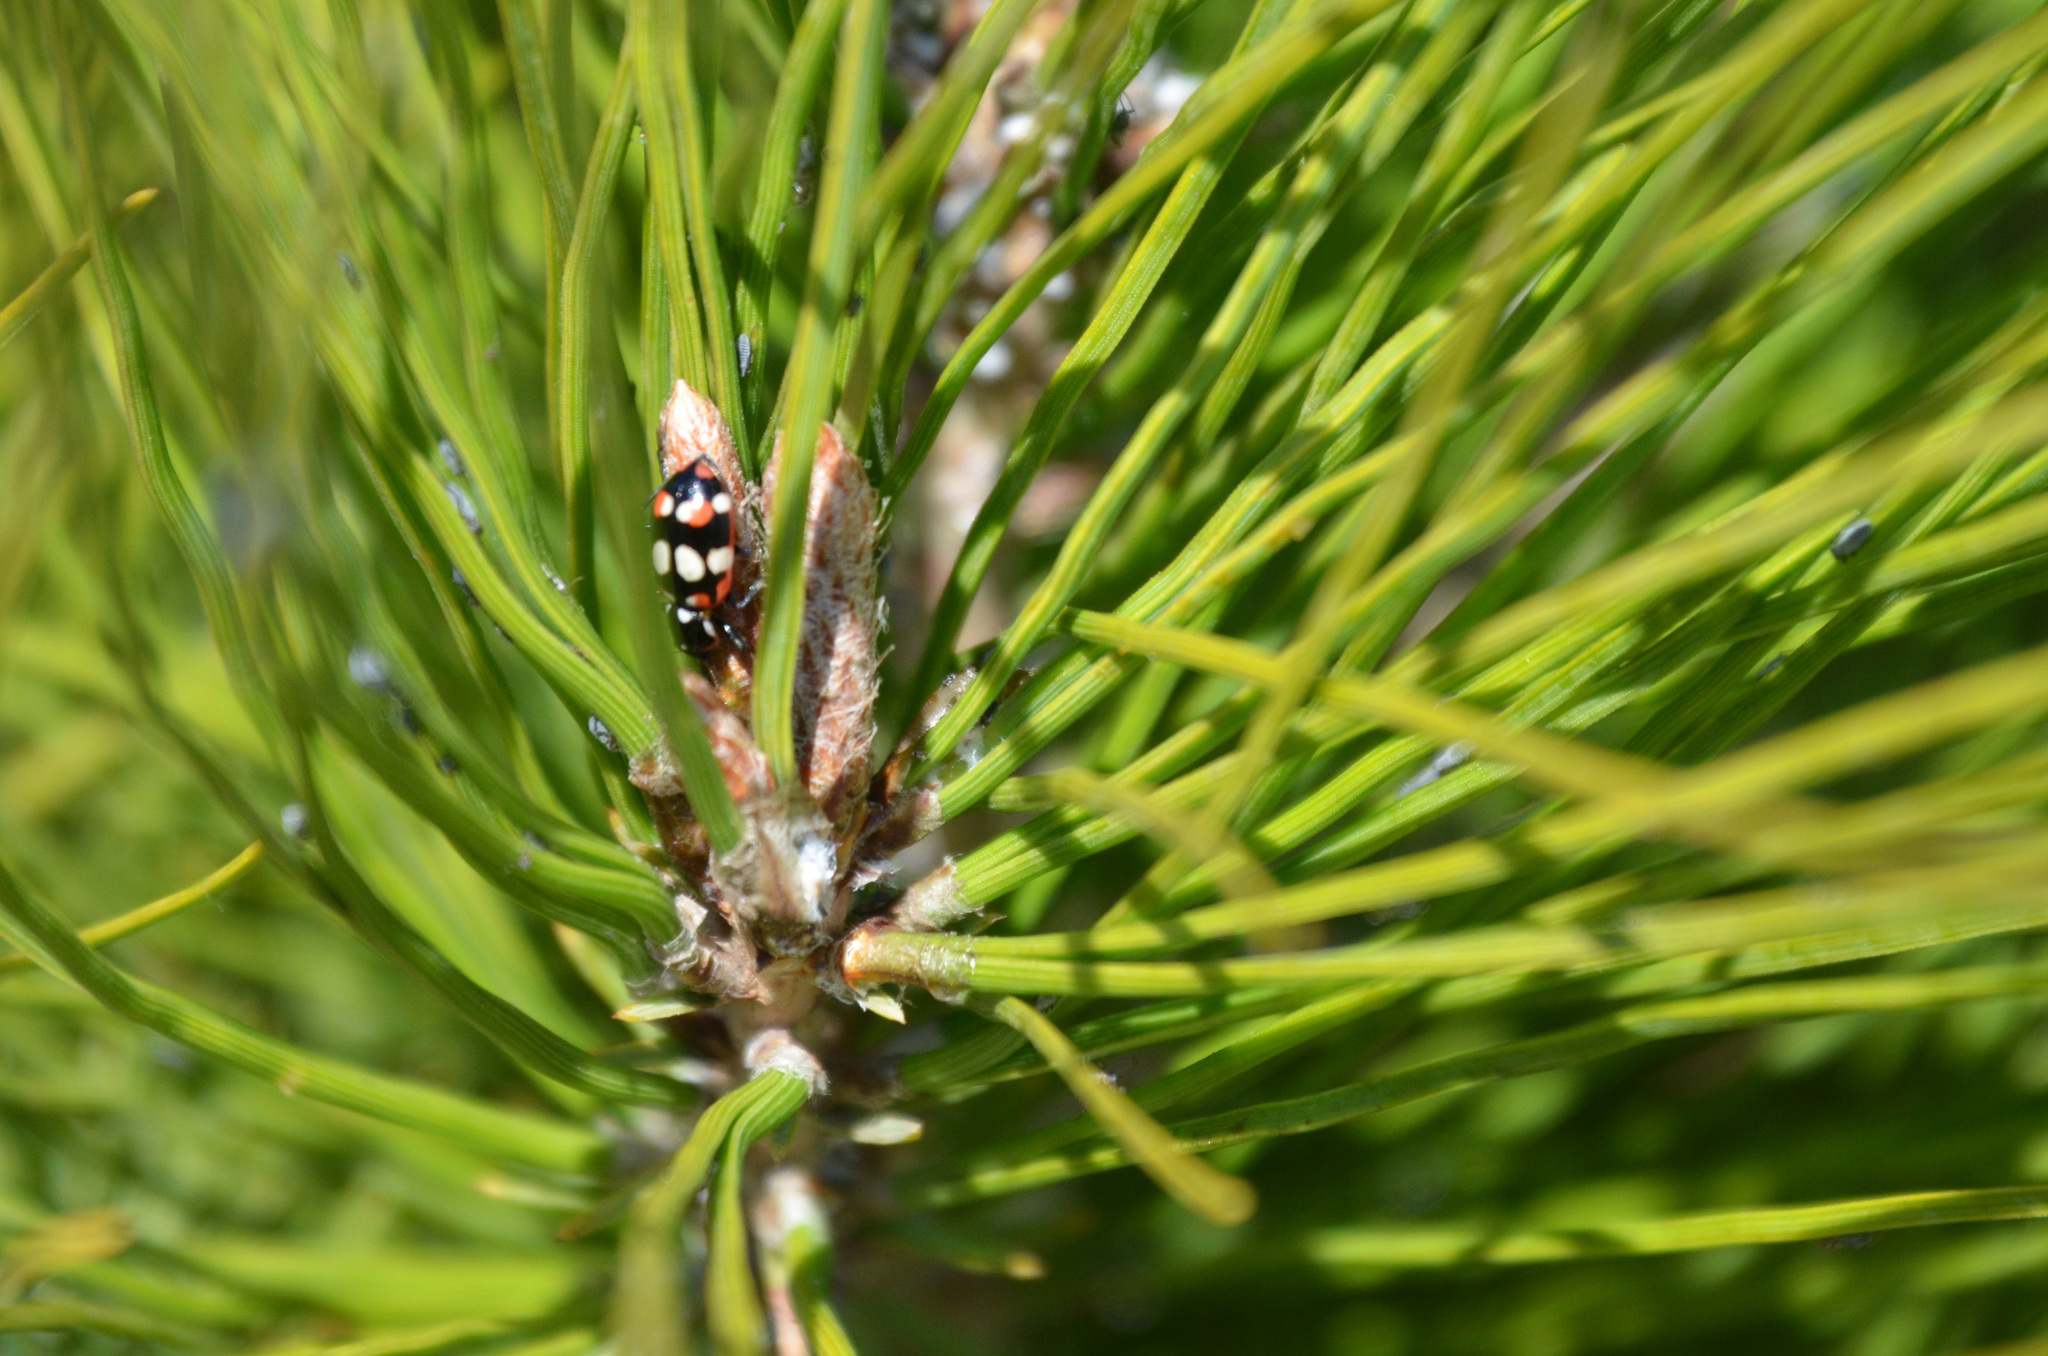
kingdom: Animalia
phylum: Arthropoda
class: Insecta
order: Coleoptera
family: Coccinellidae
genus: Eriopis
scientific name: Eriopis connexa
